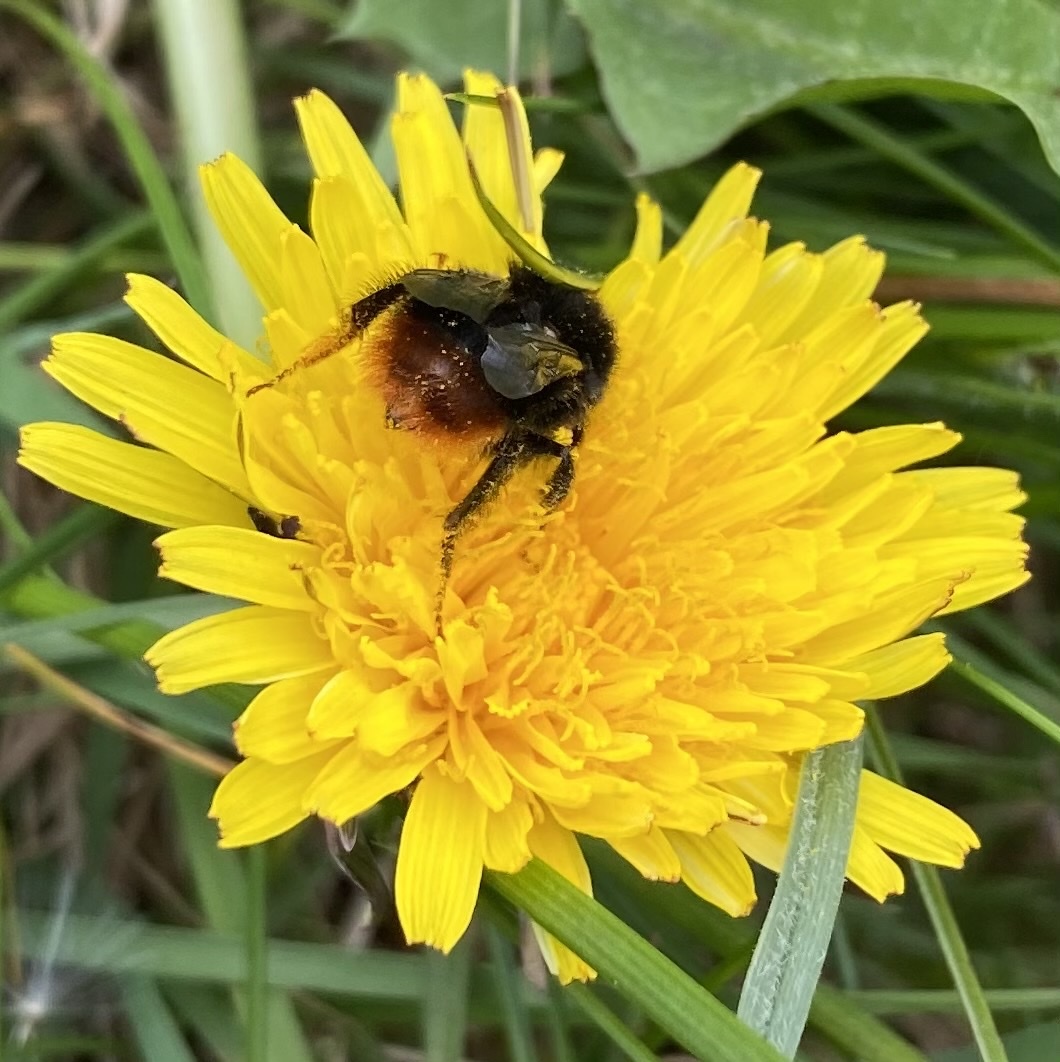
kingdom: Animalia
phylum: Arthropoda
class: Insecta
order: Hymenoptera
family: Apidae
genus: Bombus
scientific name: Bombus lapidarius
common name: Large red-tailed humble-bee
